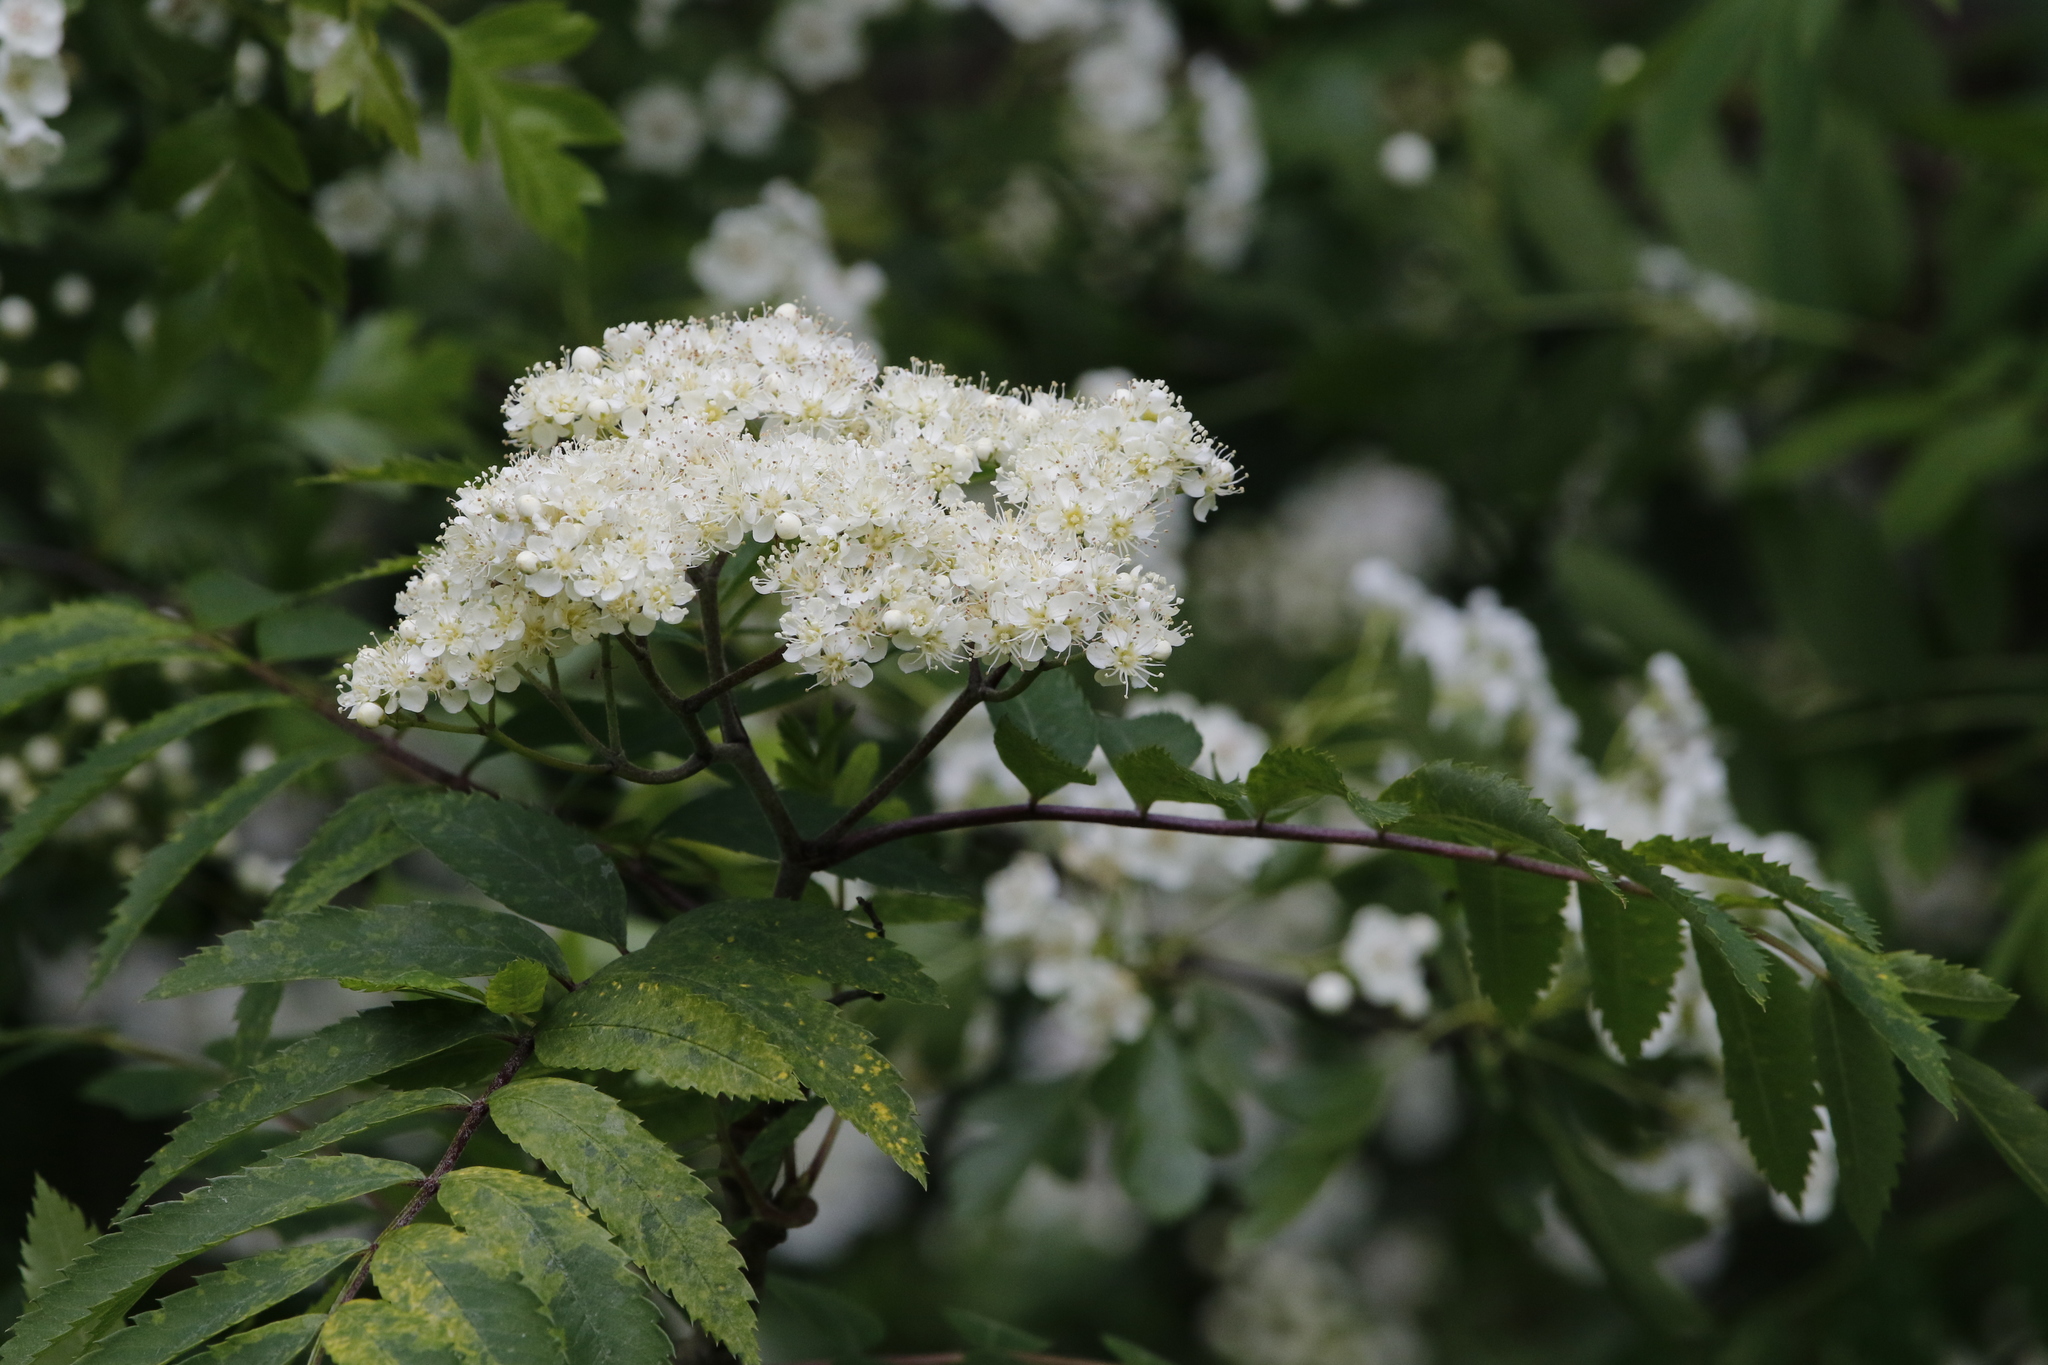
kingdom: Plantae
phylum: Tracheophyta
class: Magnoliopsida
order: Rosales
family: Rosaceae
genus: Sorbus
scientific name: Sorbus aucuparia
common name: Rowan
